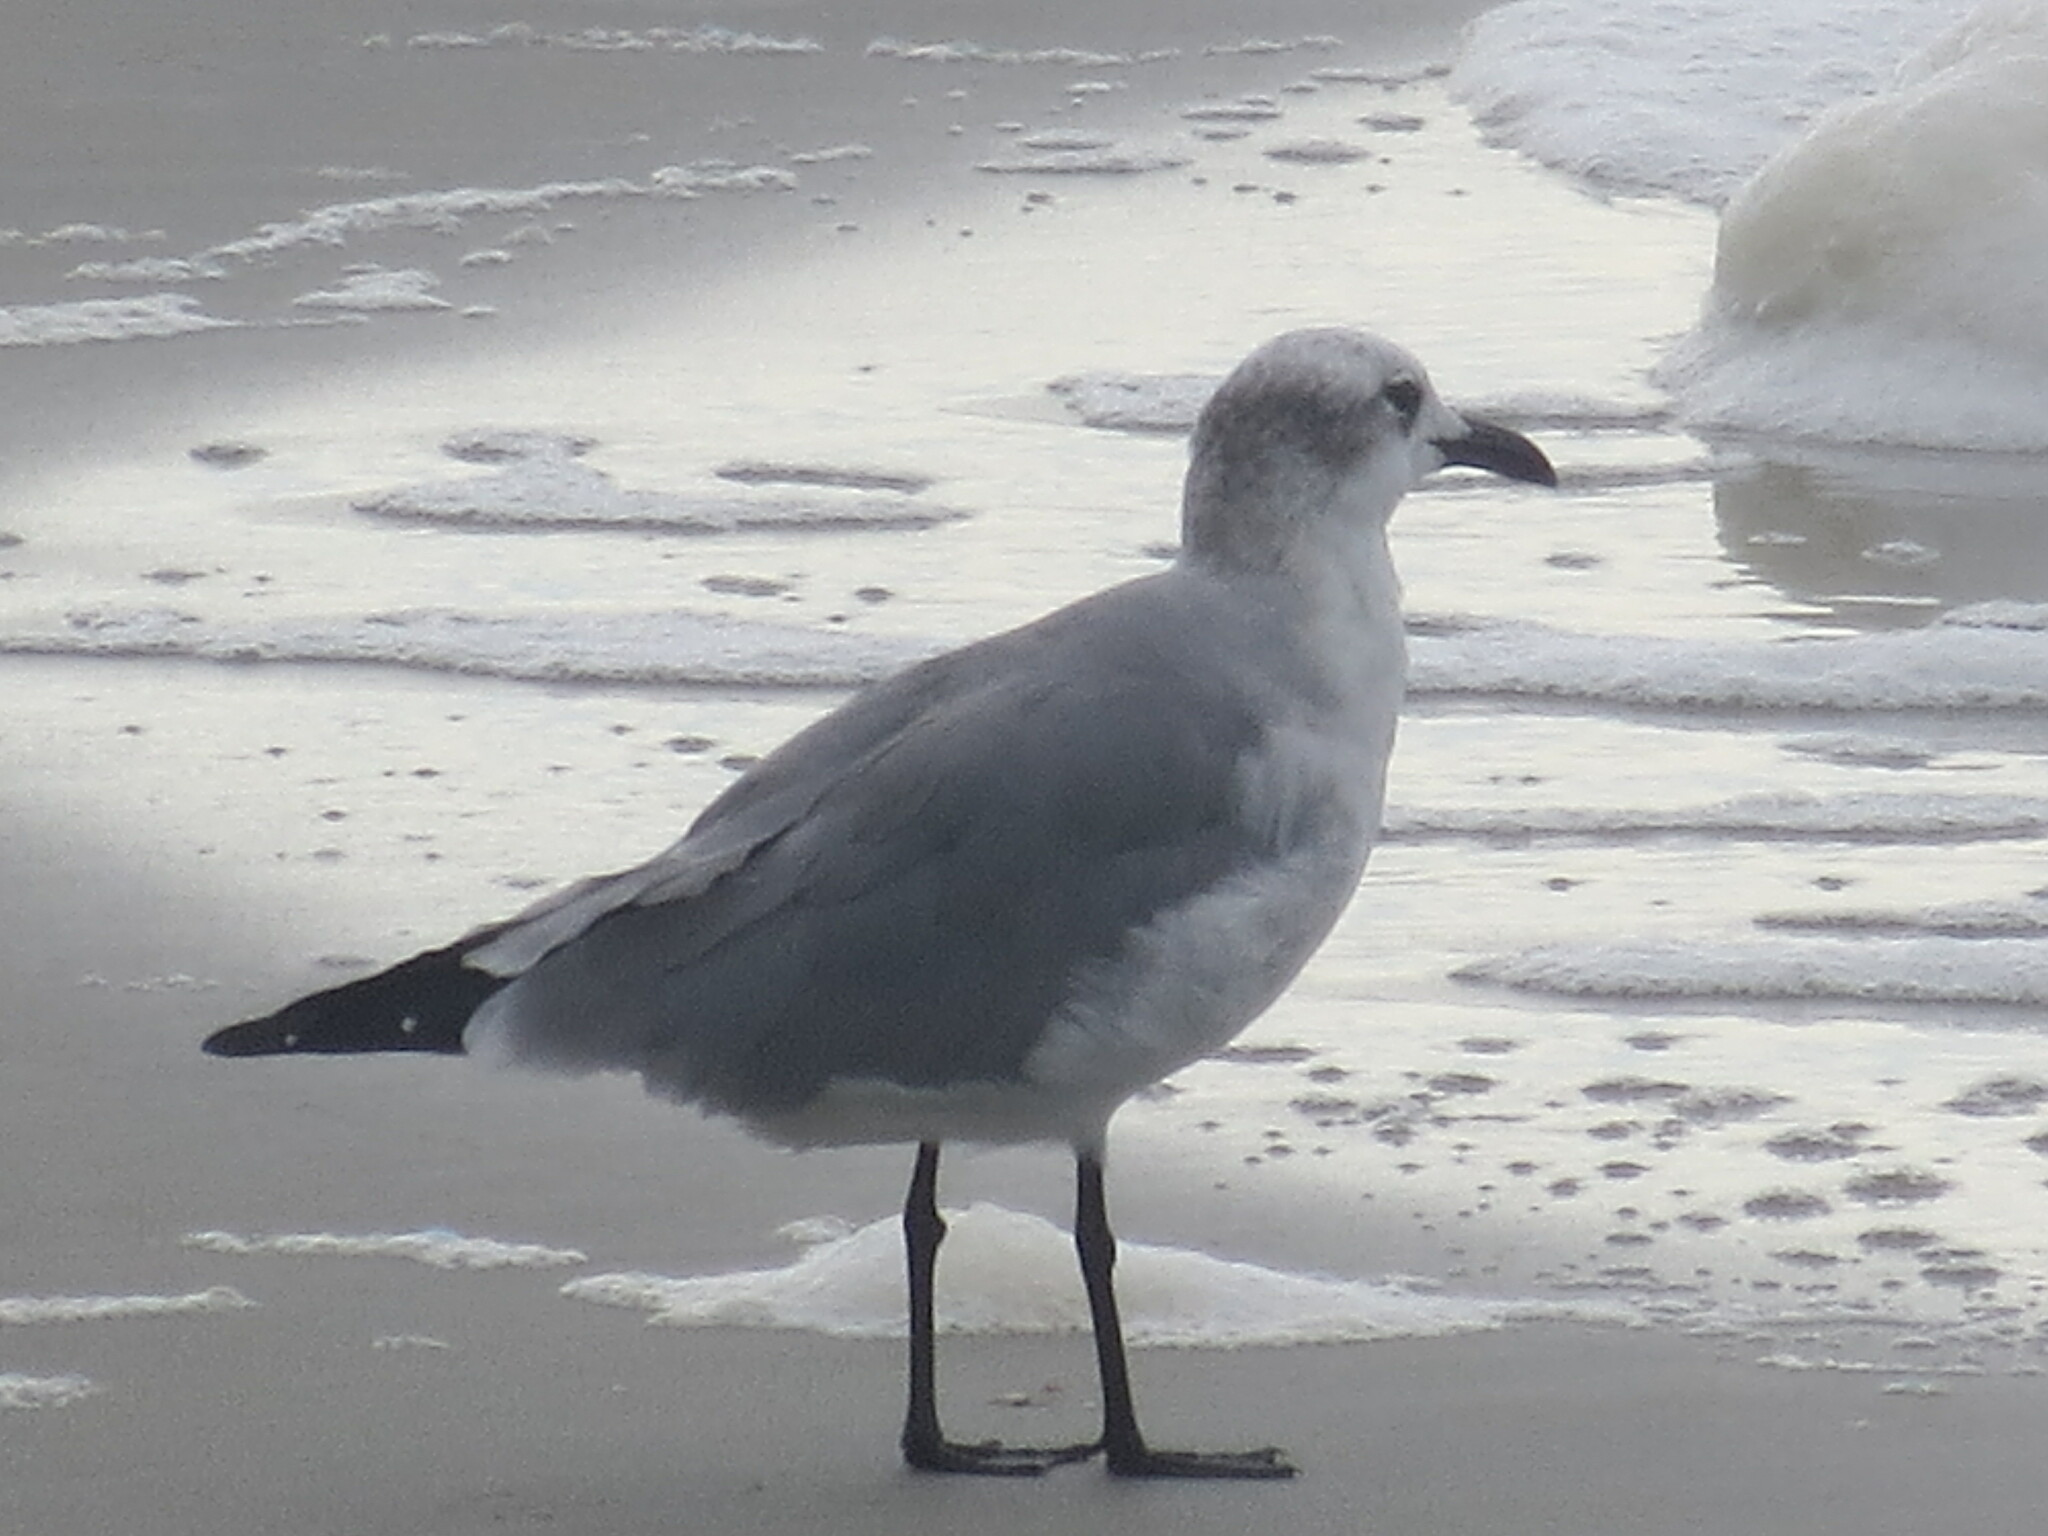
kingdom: Animalia
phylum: Chordata
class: Aves
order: Charadriiformes
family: Laridae
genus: Leucophaeus
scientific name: Leucophaeus atricilla
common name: Laughing gull
